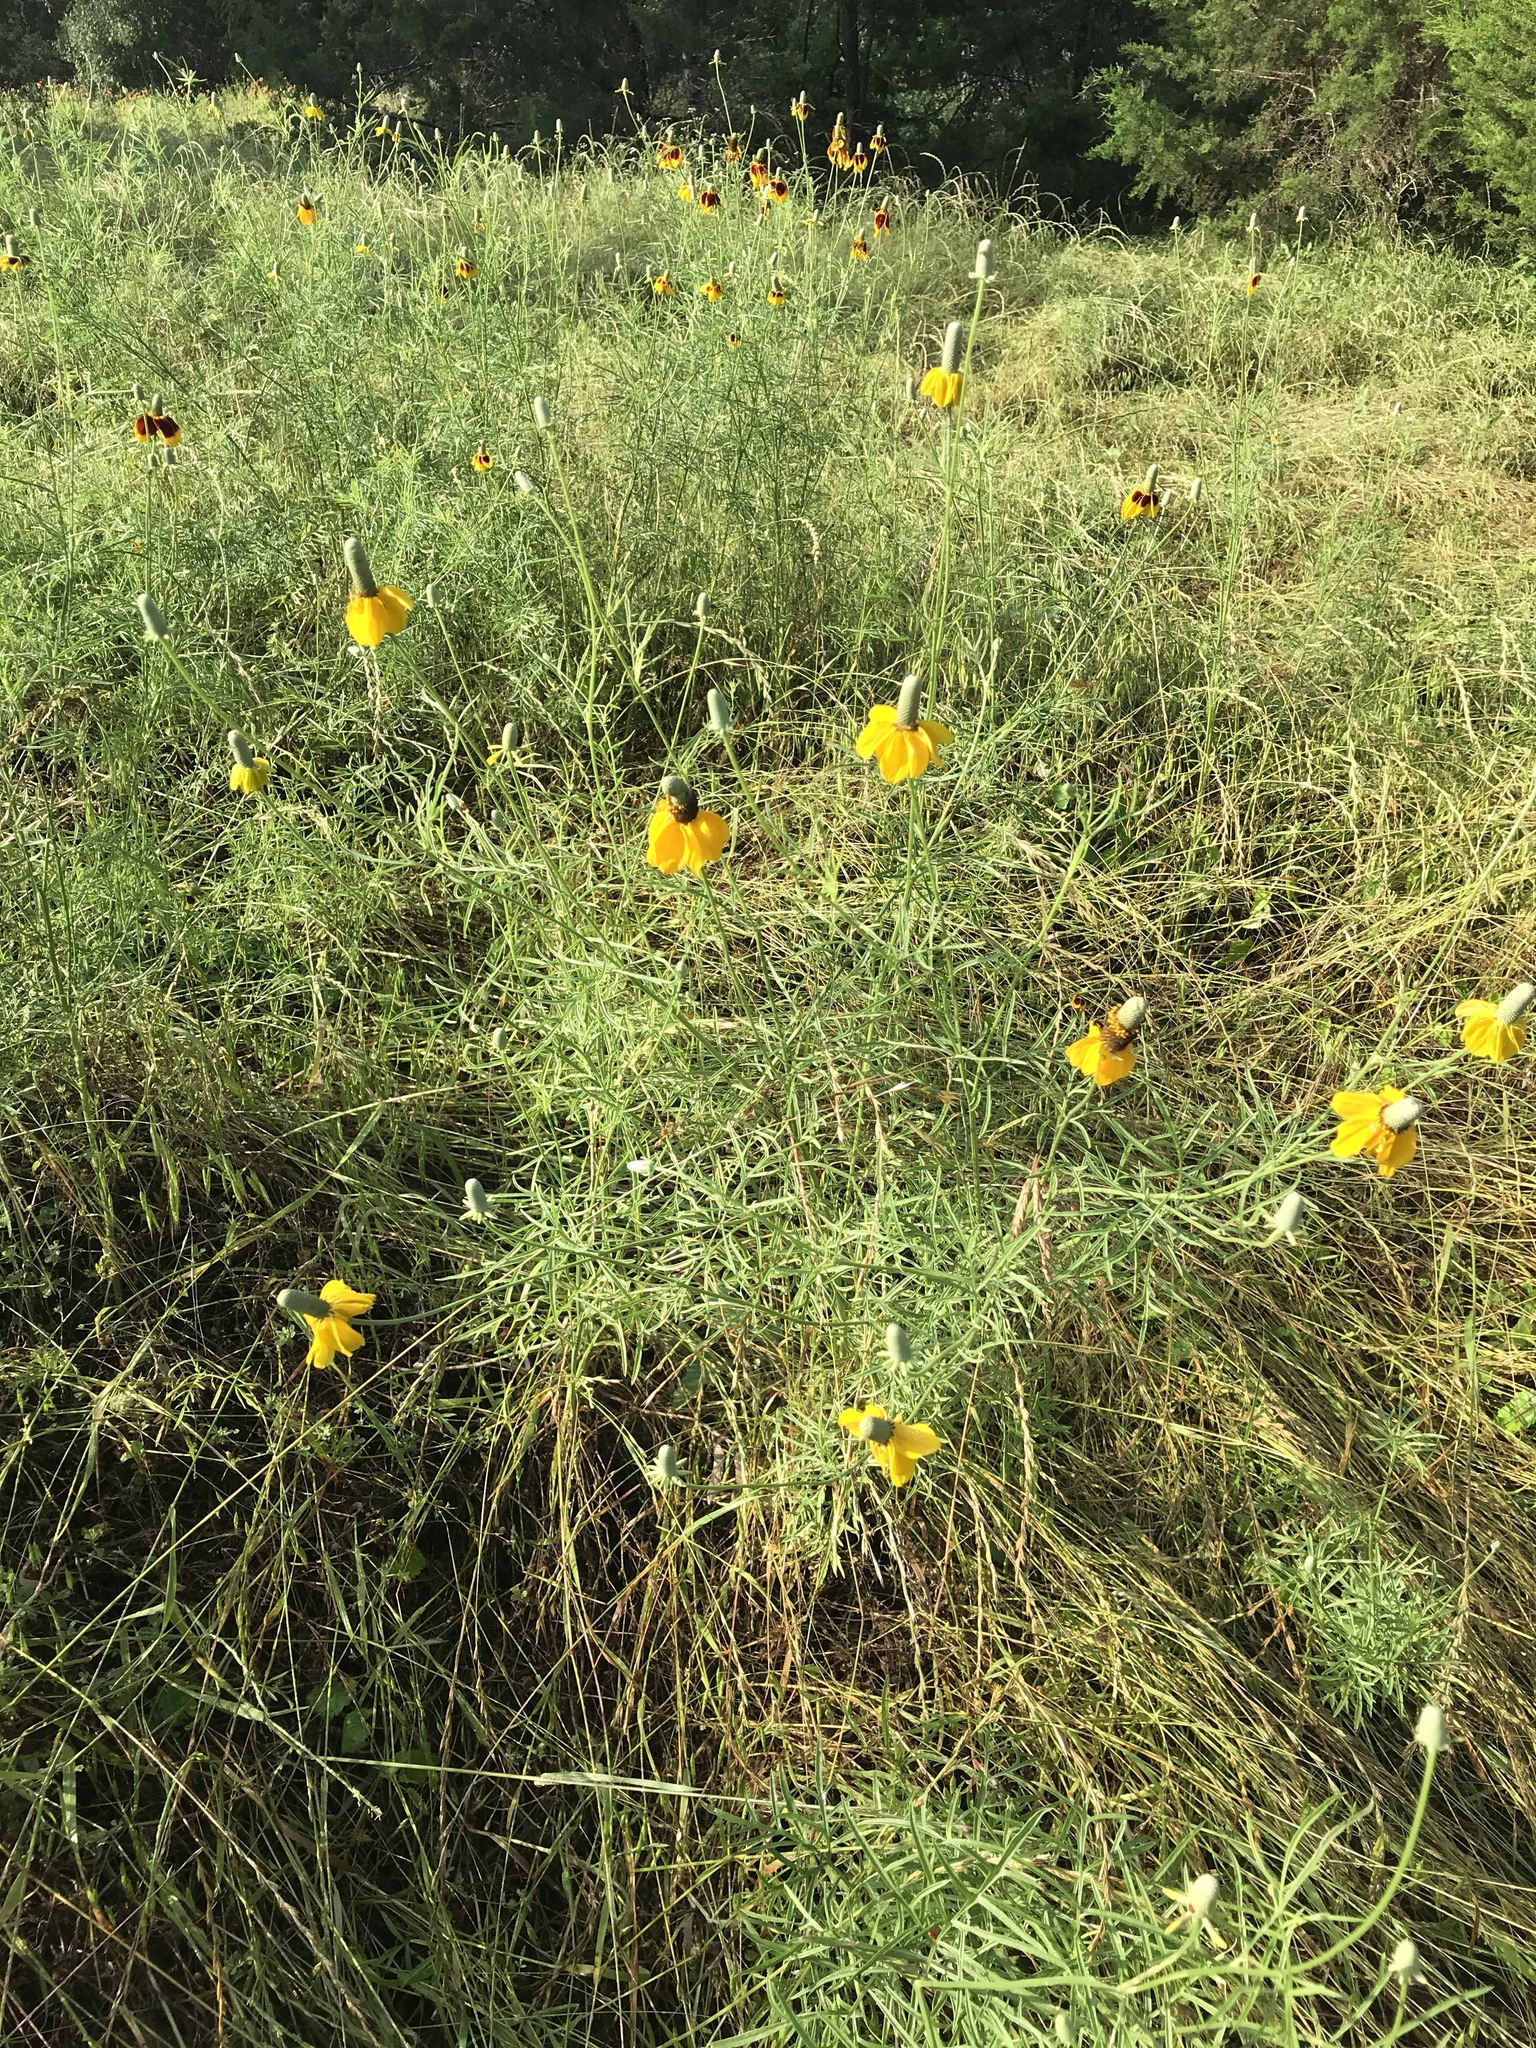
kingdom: Plantae
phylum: Tracheophyta
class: Magnoliopsida
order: Asterales
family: Asteraceae
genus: Ratibida
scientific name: Ratibida columnifera
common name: Prairie coneflower
